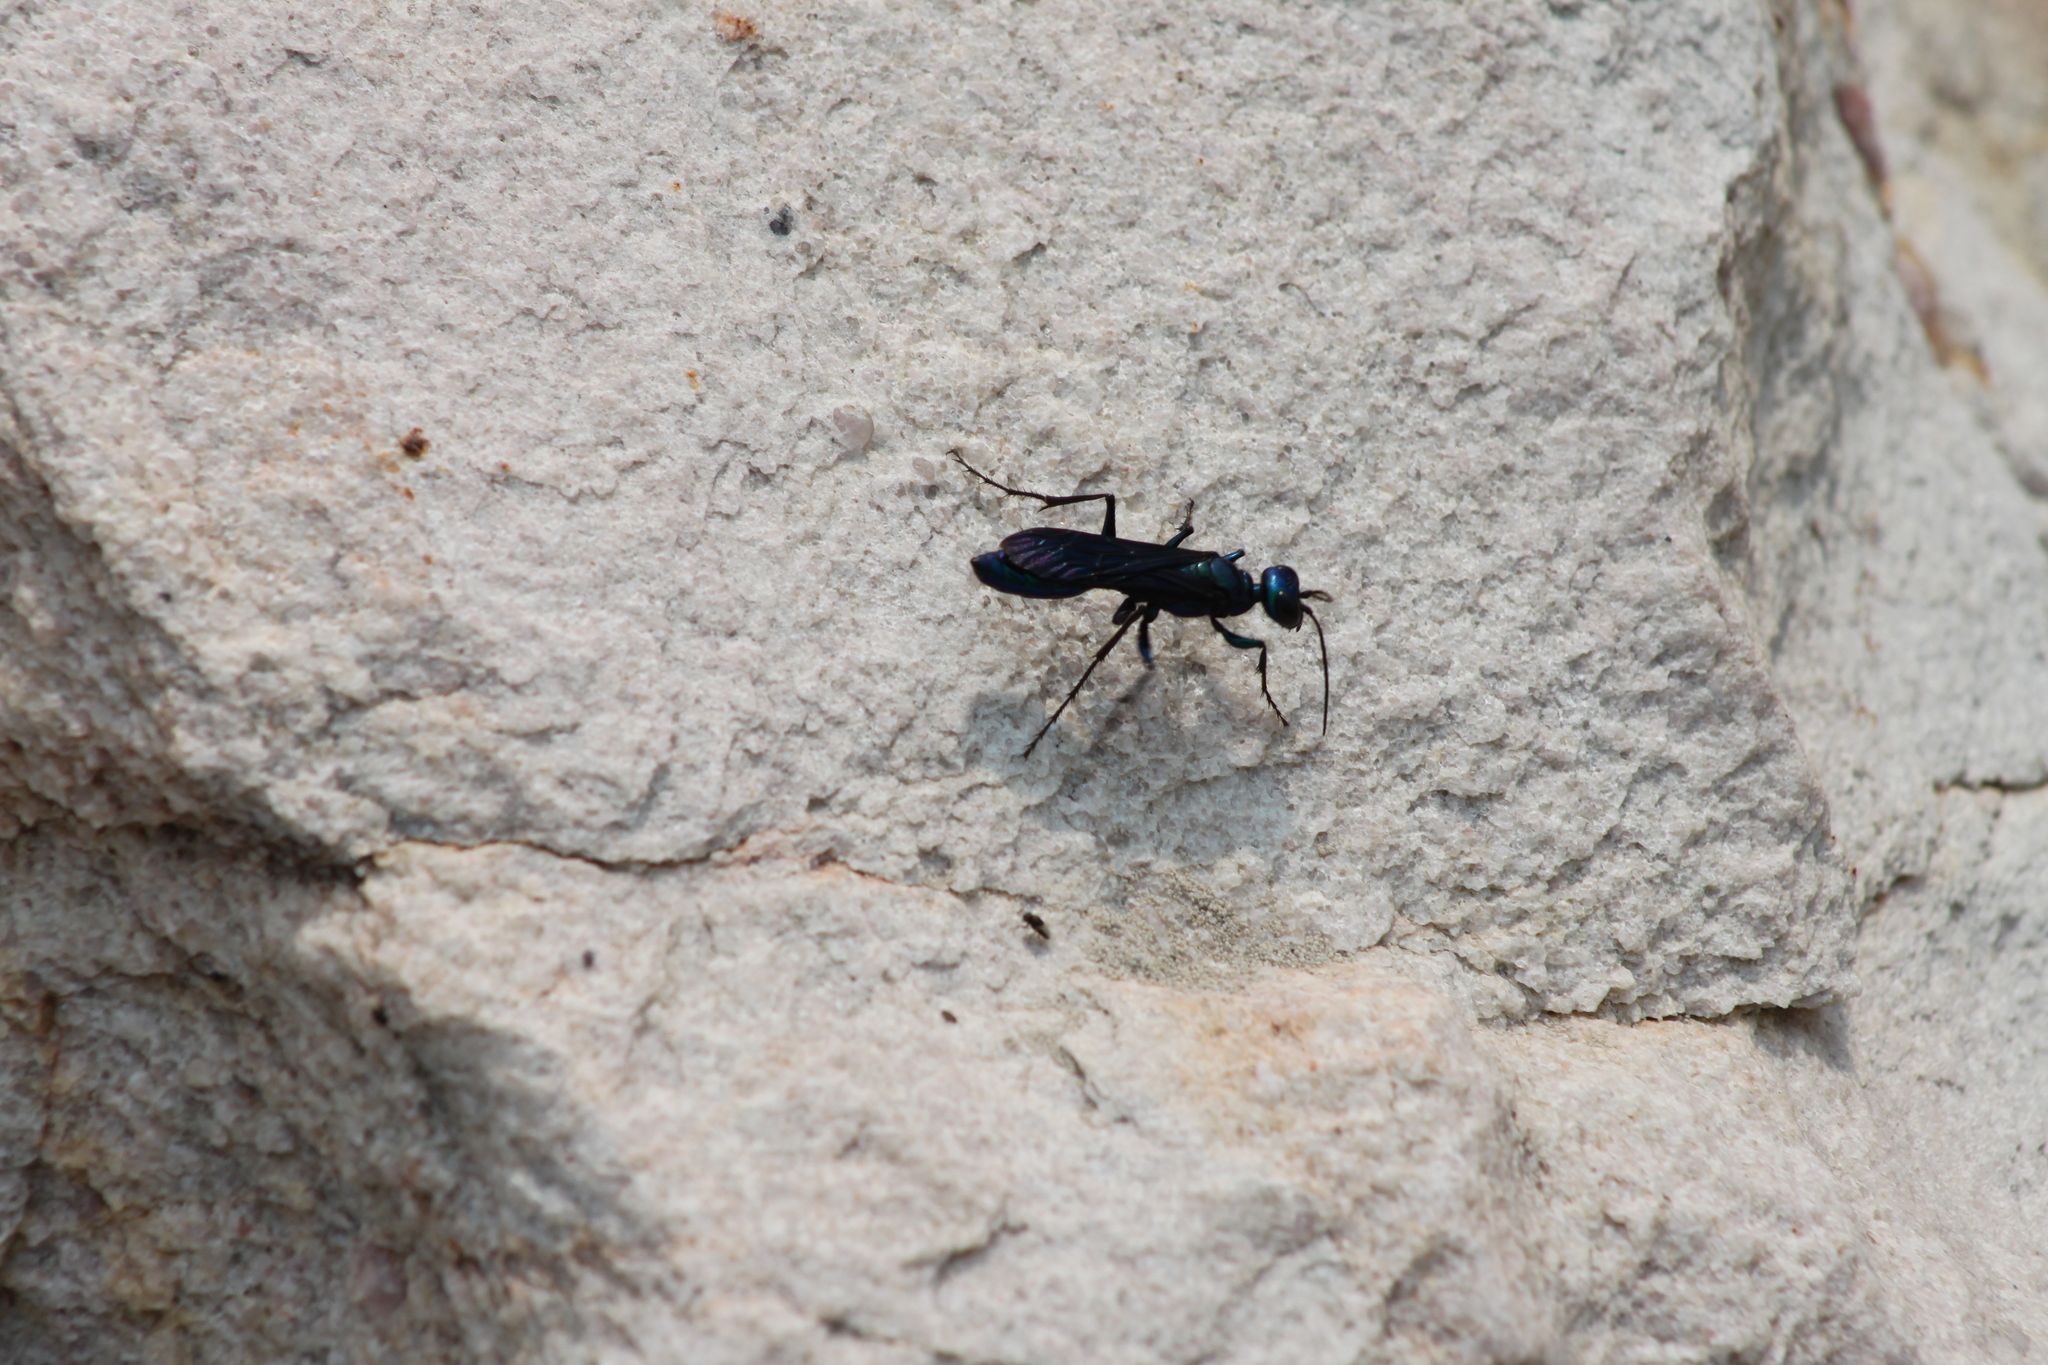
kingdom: Animalia
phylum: Arthropoda
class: Insecta
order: Hymenoptera
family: Sphecidae
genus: Chlorion
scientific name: Chlorion aerarium
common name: Steel-blue cricket hunter
